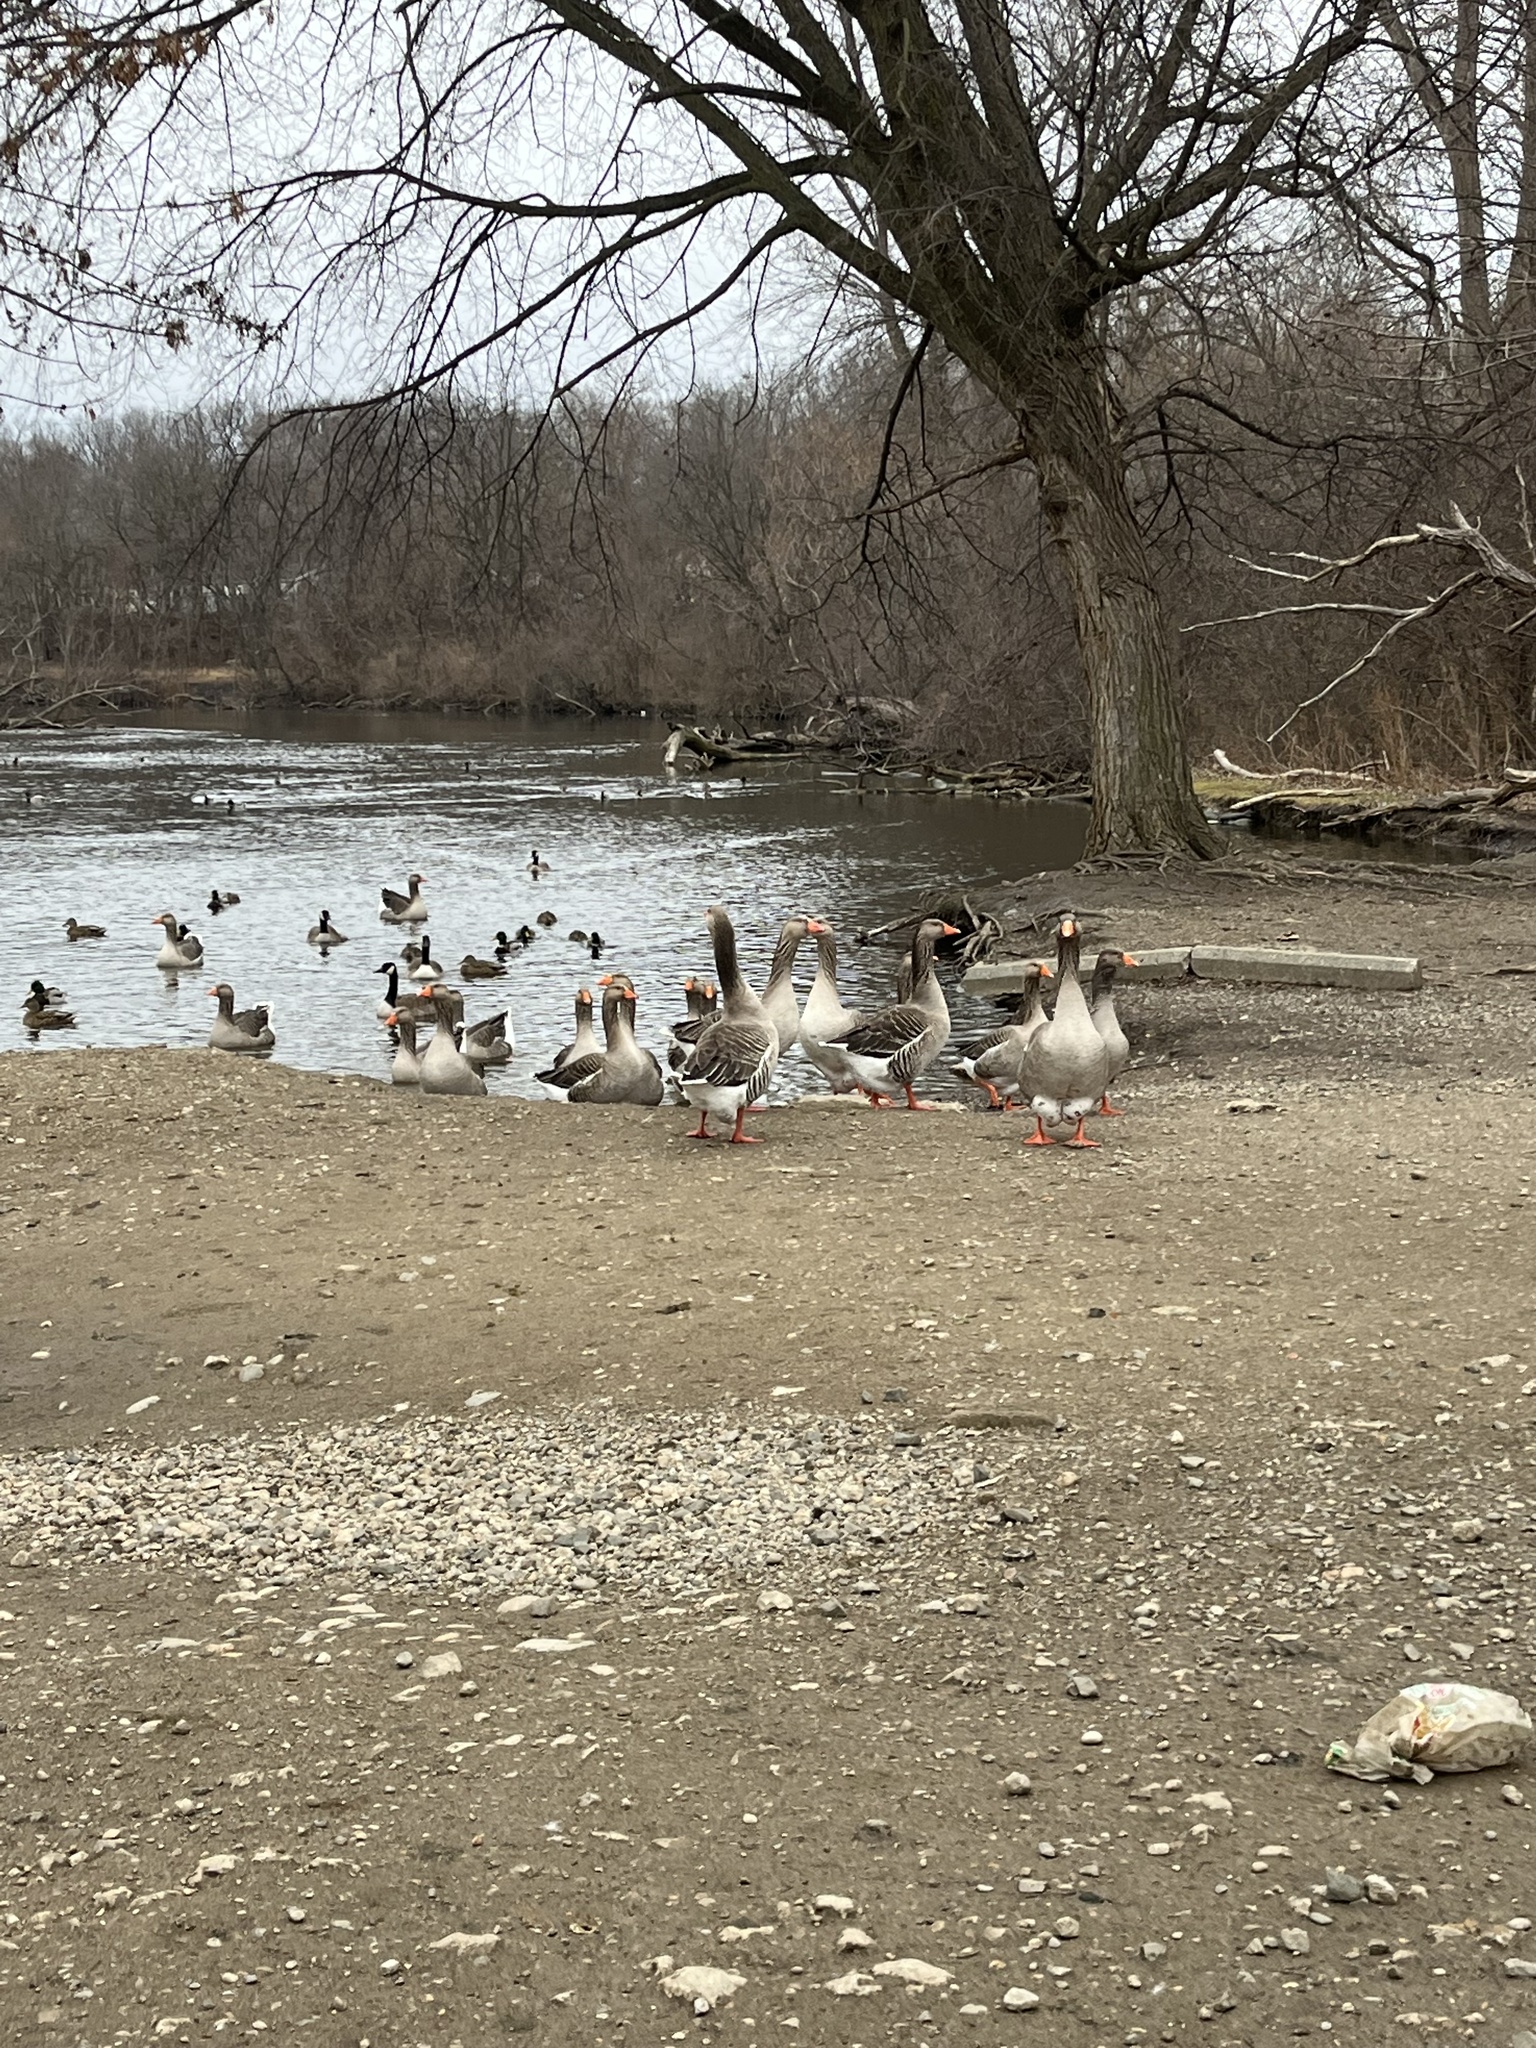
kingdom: Animalia
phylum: Chordata
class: Aves
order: Anseriformes
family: Anatidae
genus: Anser
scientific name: Anser anser
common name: Greylag goose
